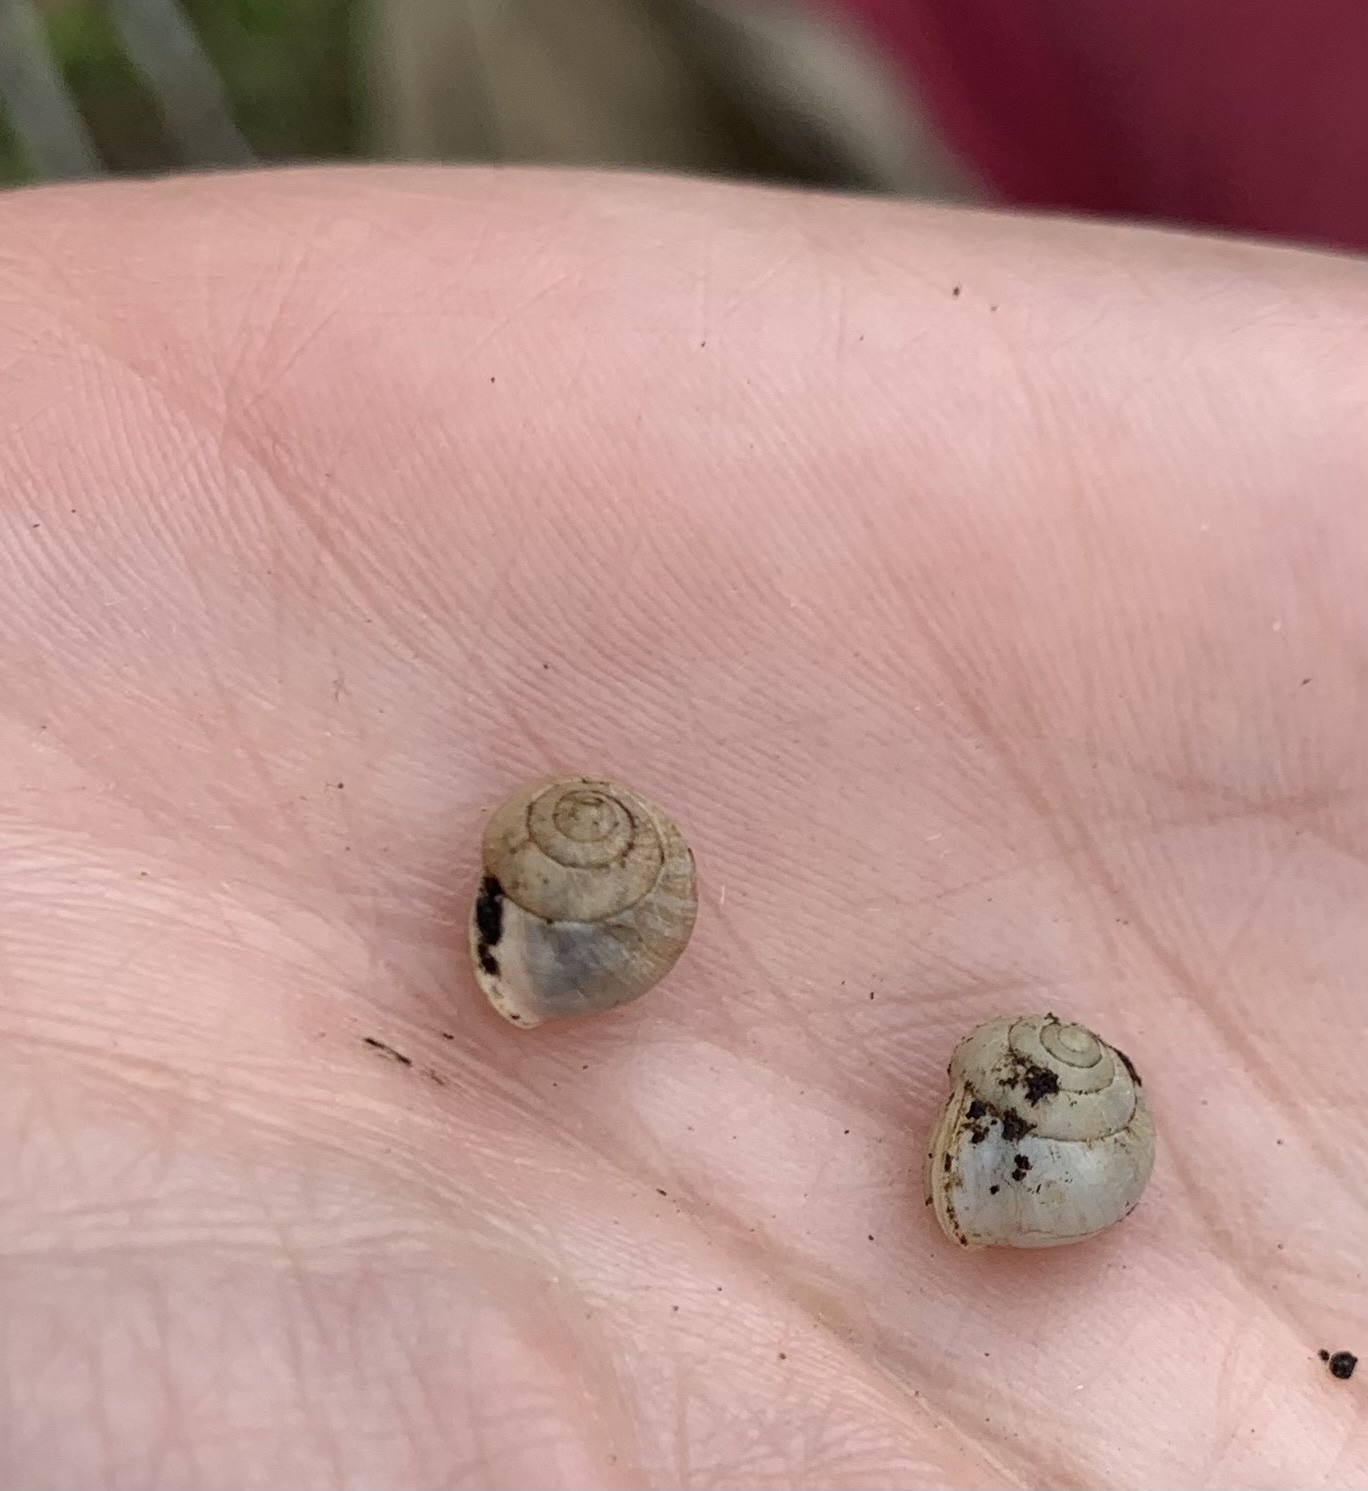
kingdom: Animalia
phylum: Mollusca
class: Gastropoda
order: Cycloneritida
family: Helicinidae
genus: Helicina
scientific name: Helicina orbiculata
